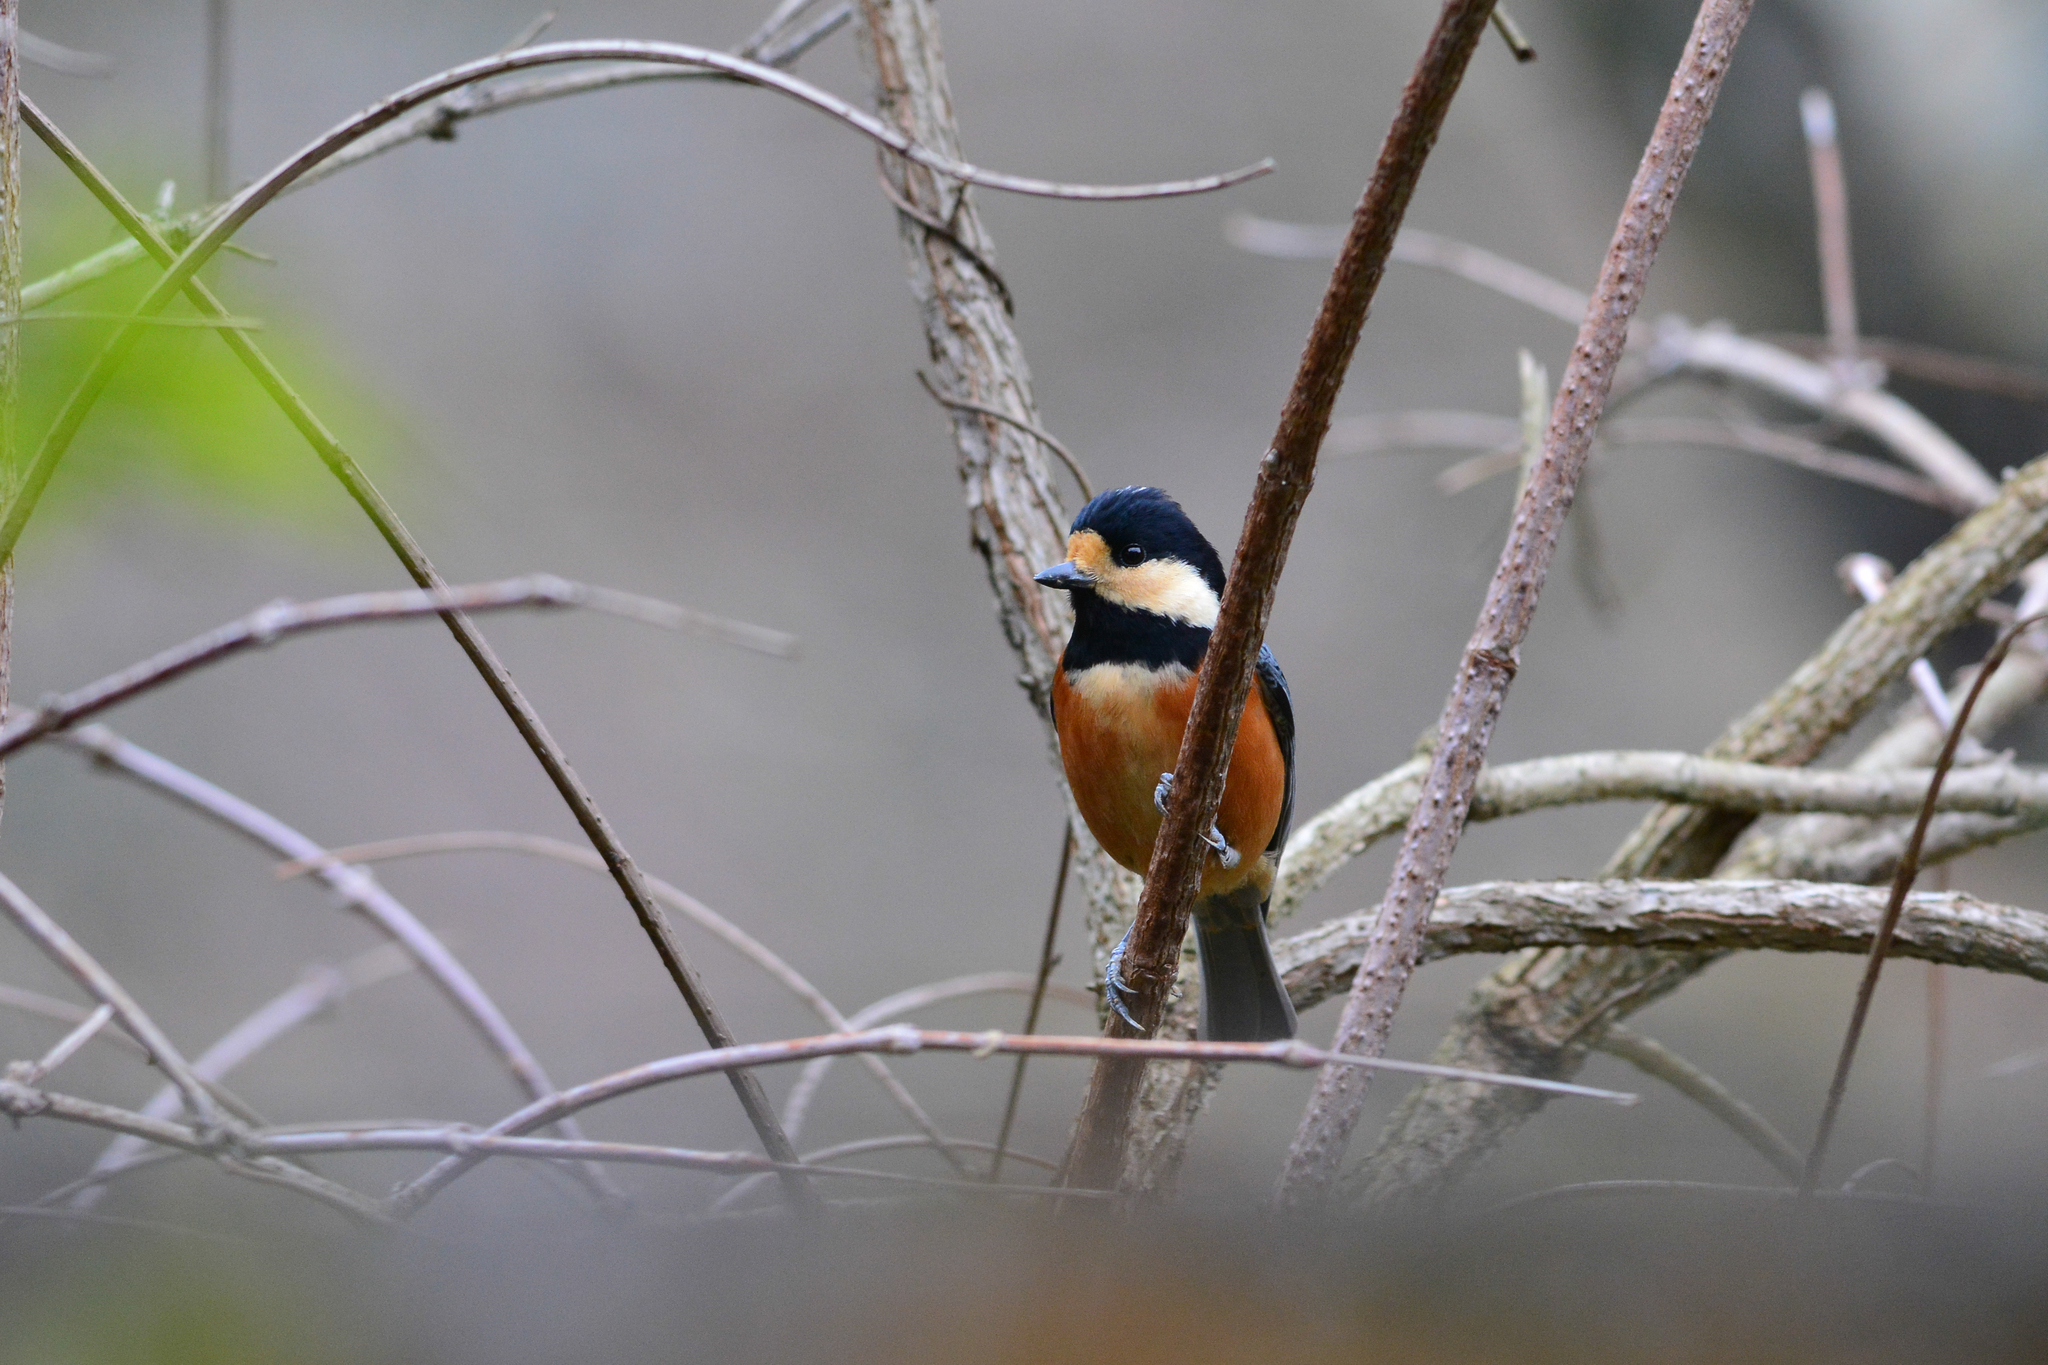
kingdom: Animalia
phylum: Chordata
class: Aves
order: Passeriformes
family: Paridae
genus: Poecile
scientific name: Poecile varius
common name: Varied tit
